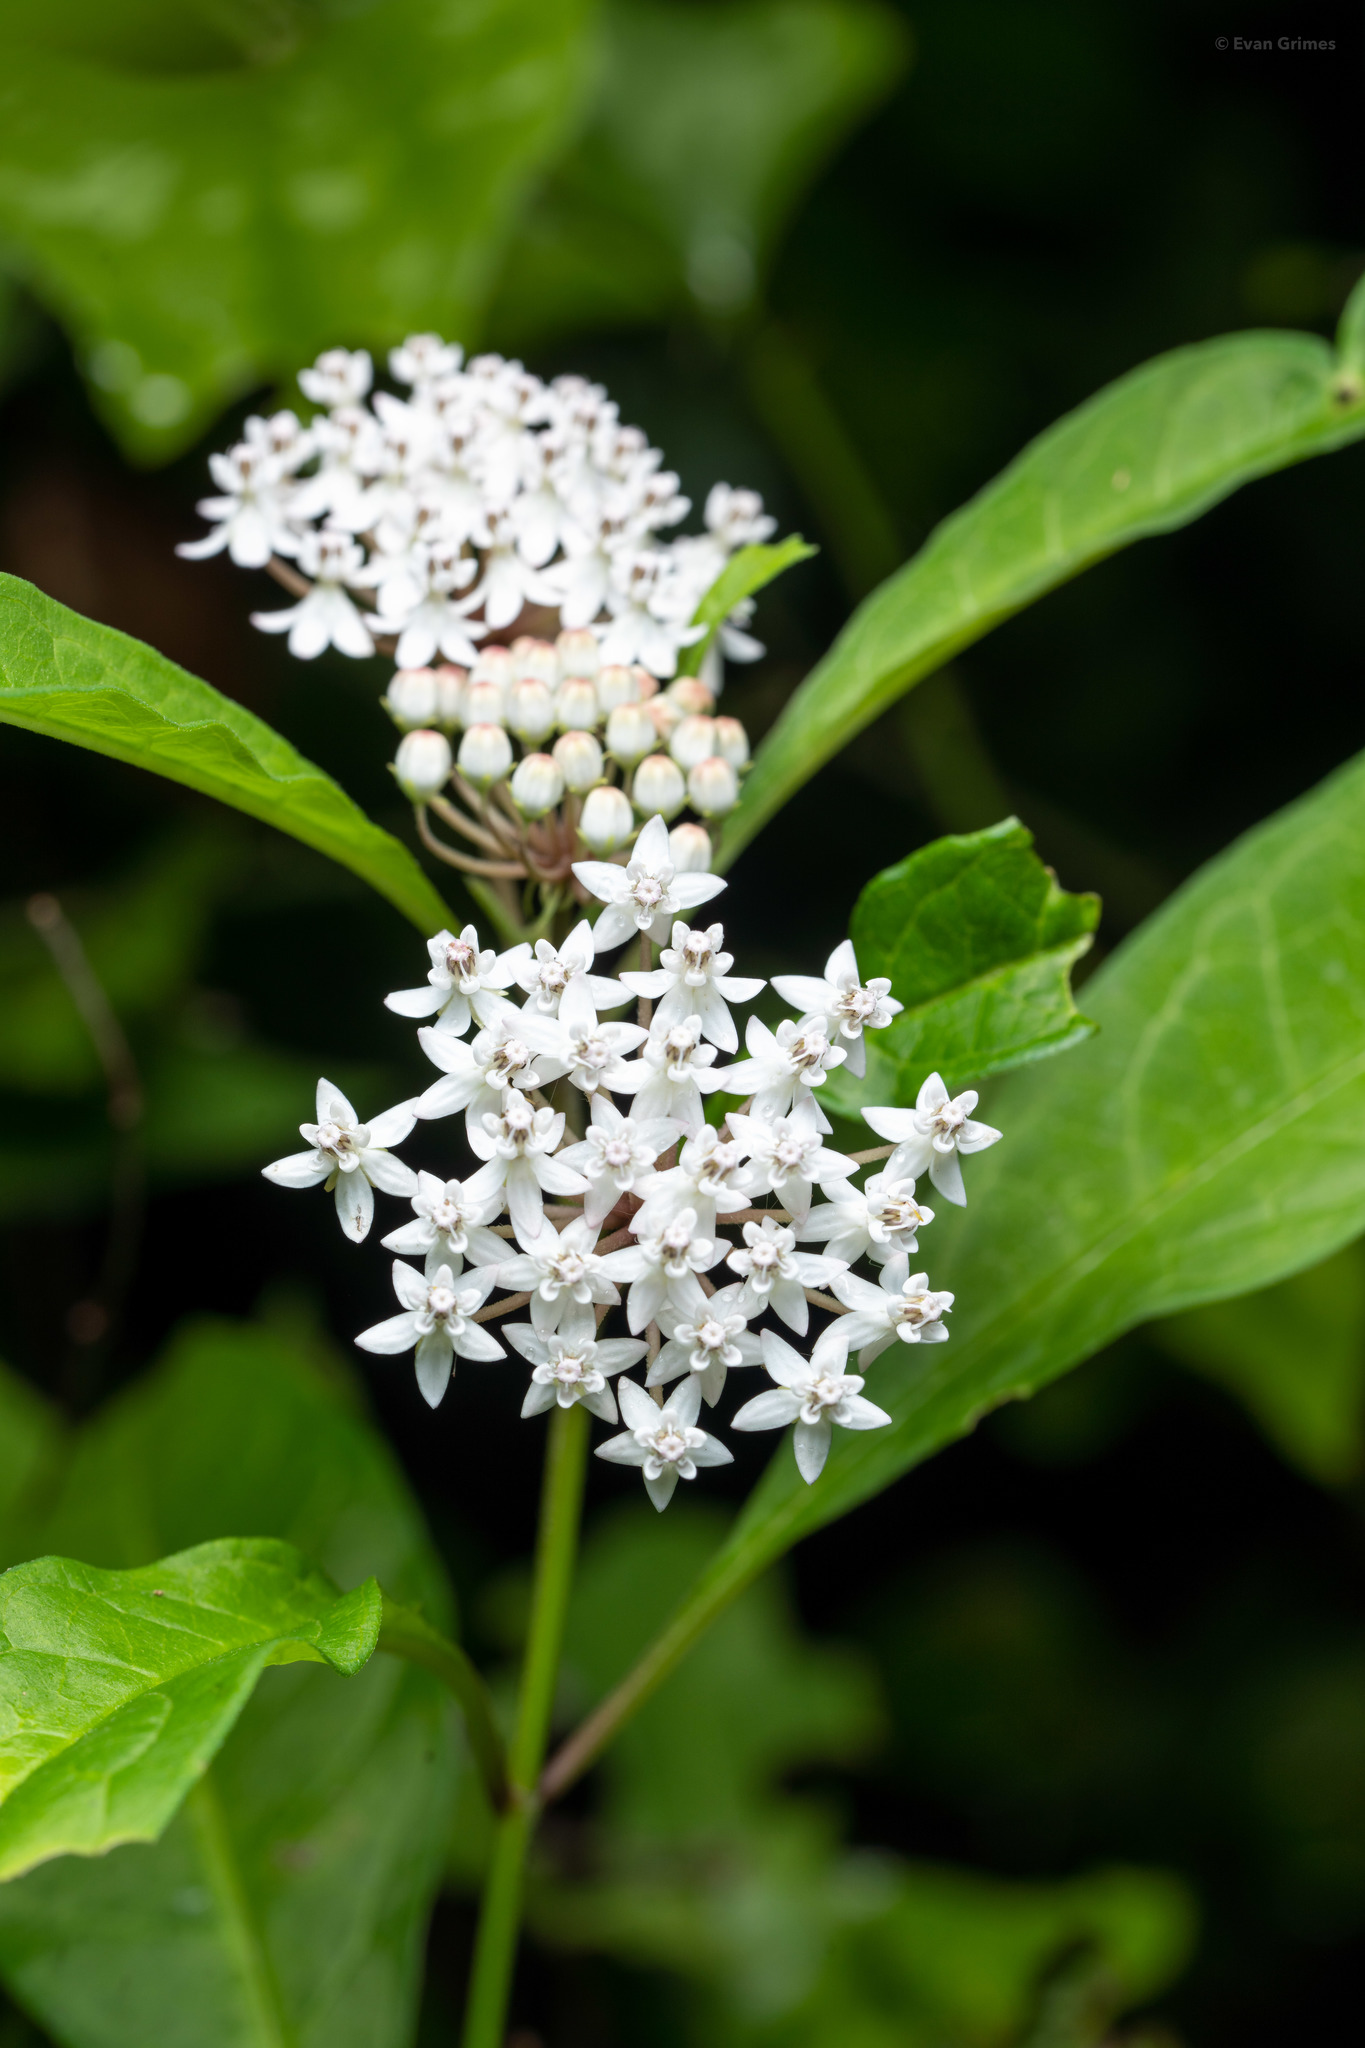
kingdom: Plantae
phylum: Tracheophyta
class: Magnoliopsida
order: Gentianales
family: Apocynaceae
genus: Asclepias
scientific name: Asclepias perennis
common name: Smooth-seed milkweed
